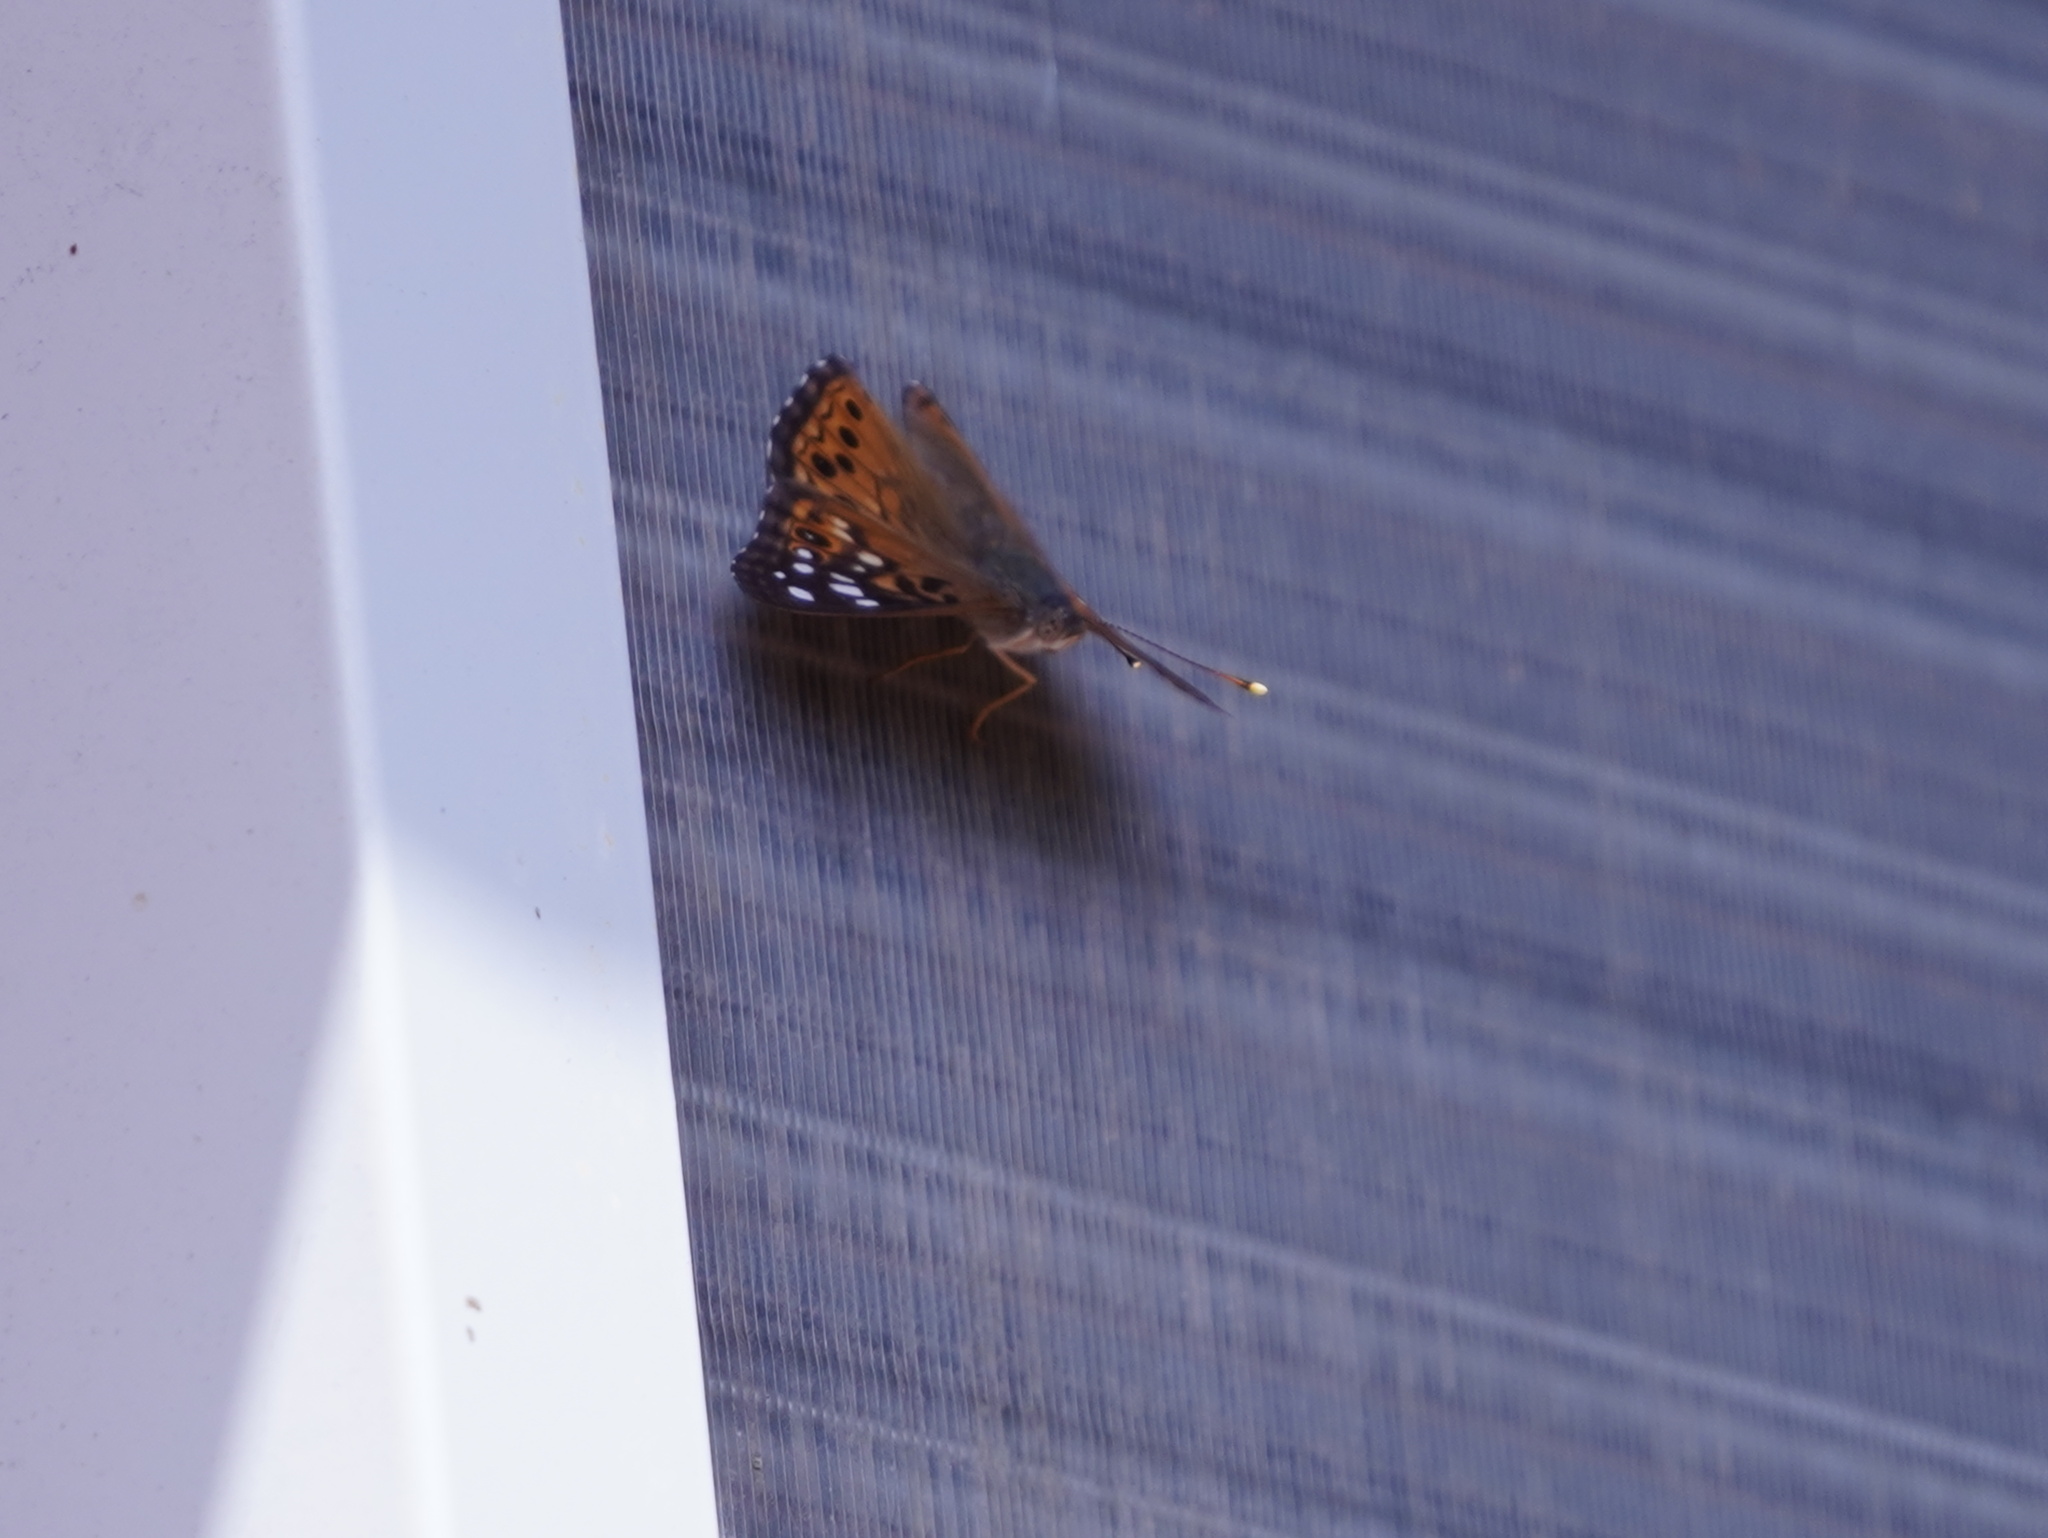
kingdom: Animalia
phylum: Arthropoda
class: Insecta
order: Lepidoptera
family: Nymphalidae
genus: Asterocampa
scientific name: Asterocampa celtis
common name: Hackberry emperor
